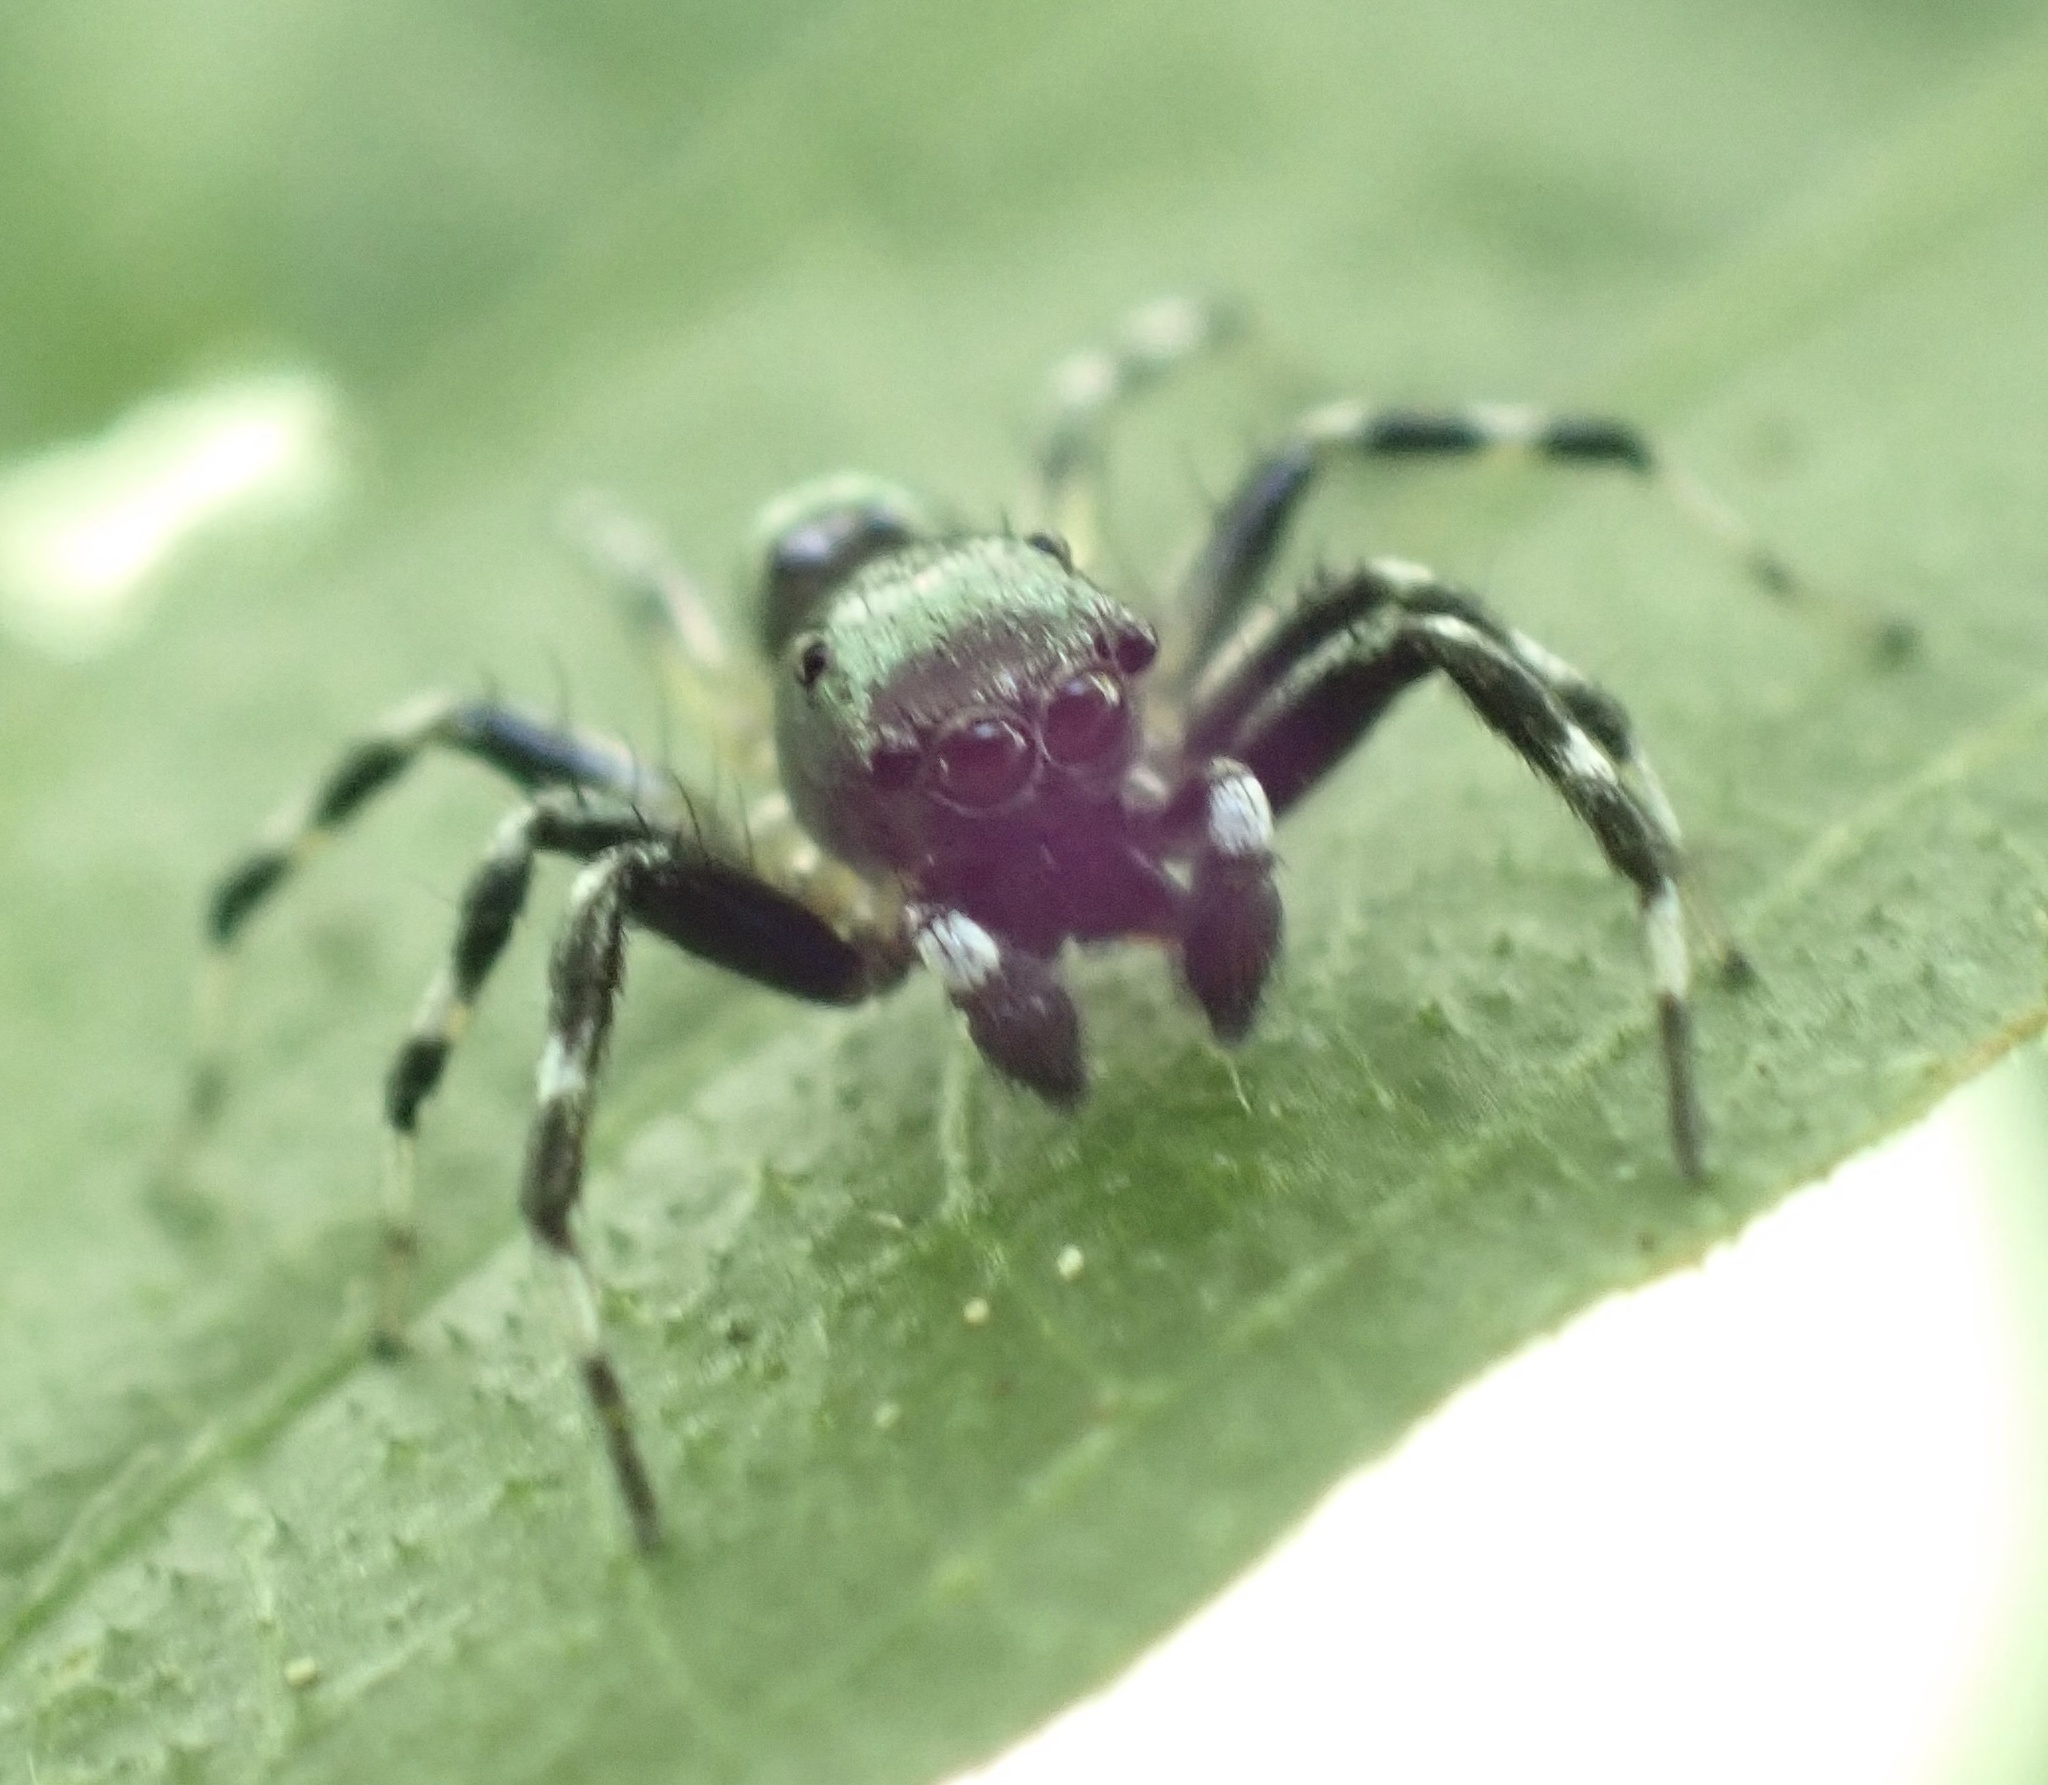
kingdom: Animalia
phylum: Arthropoda
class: Arachnida
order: Araneae
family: Salticidae
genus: Phintella
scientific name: Phintella aequipes
